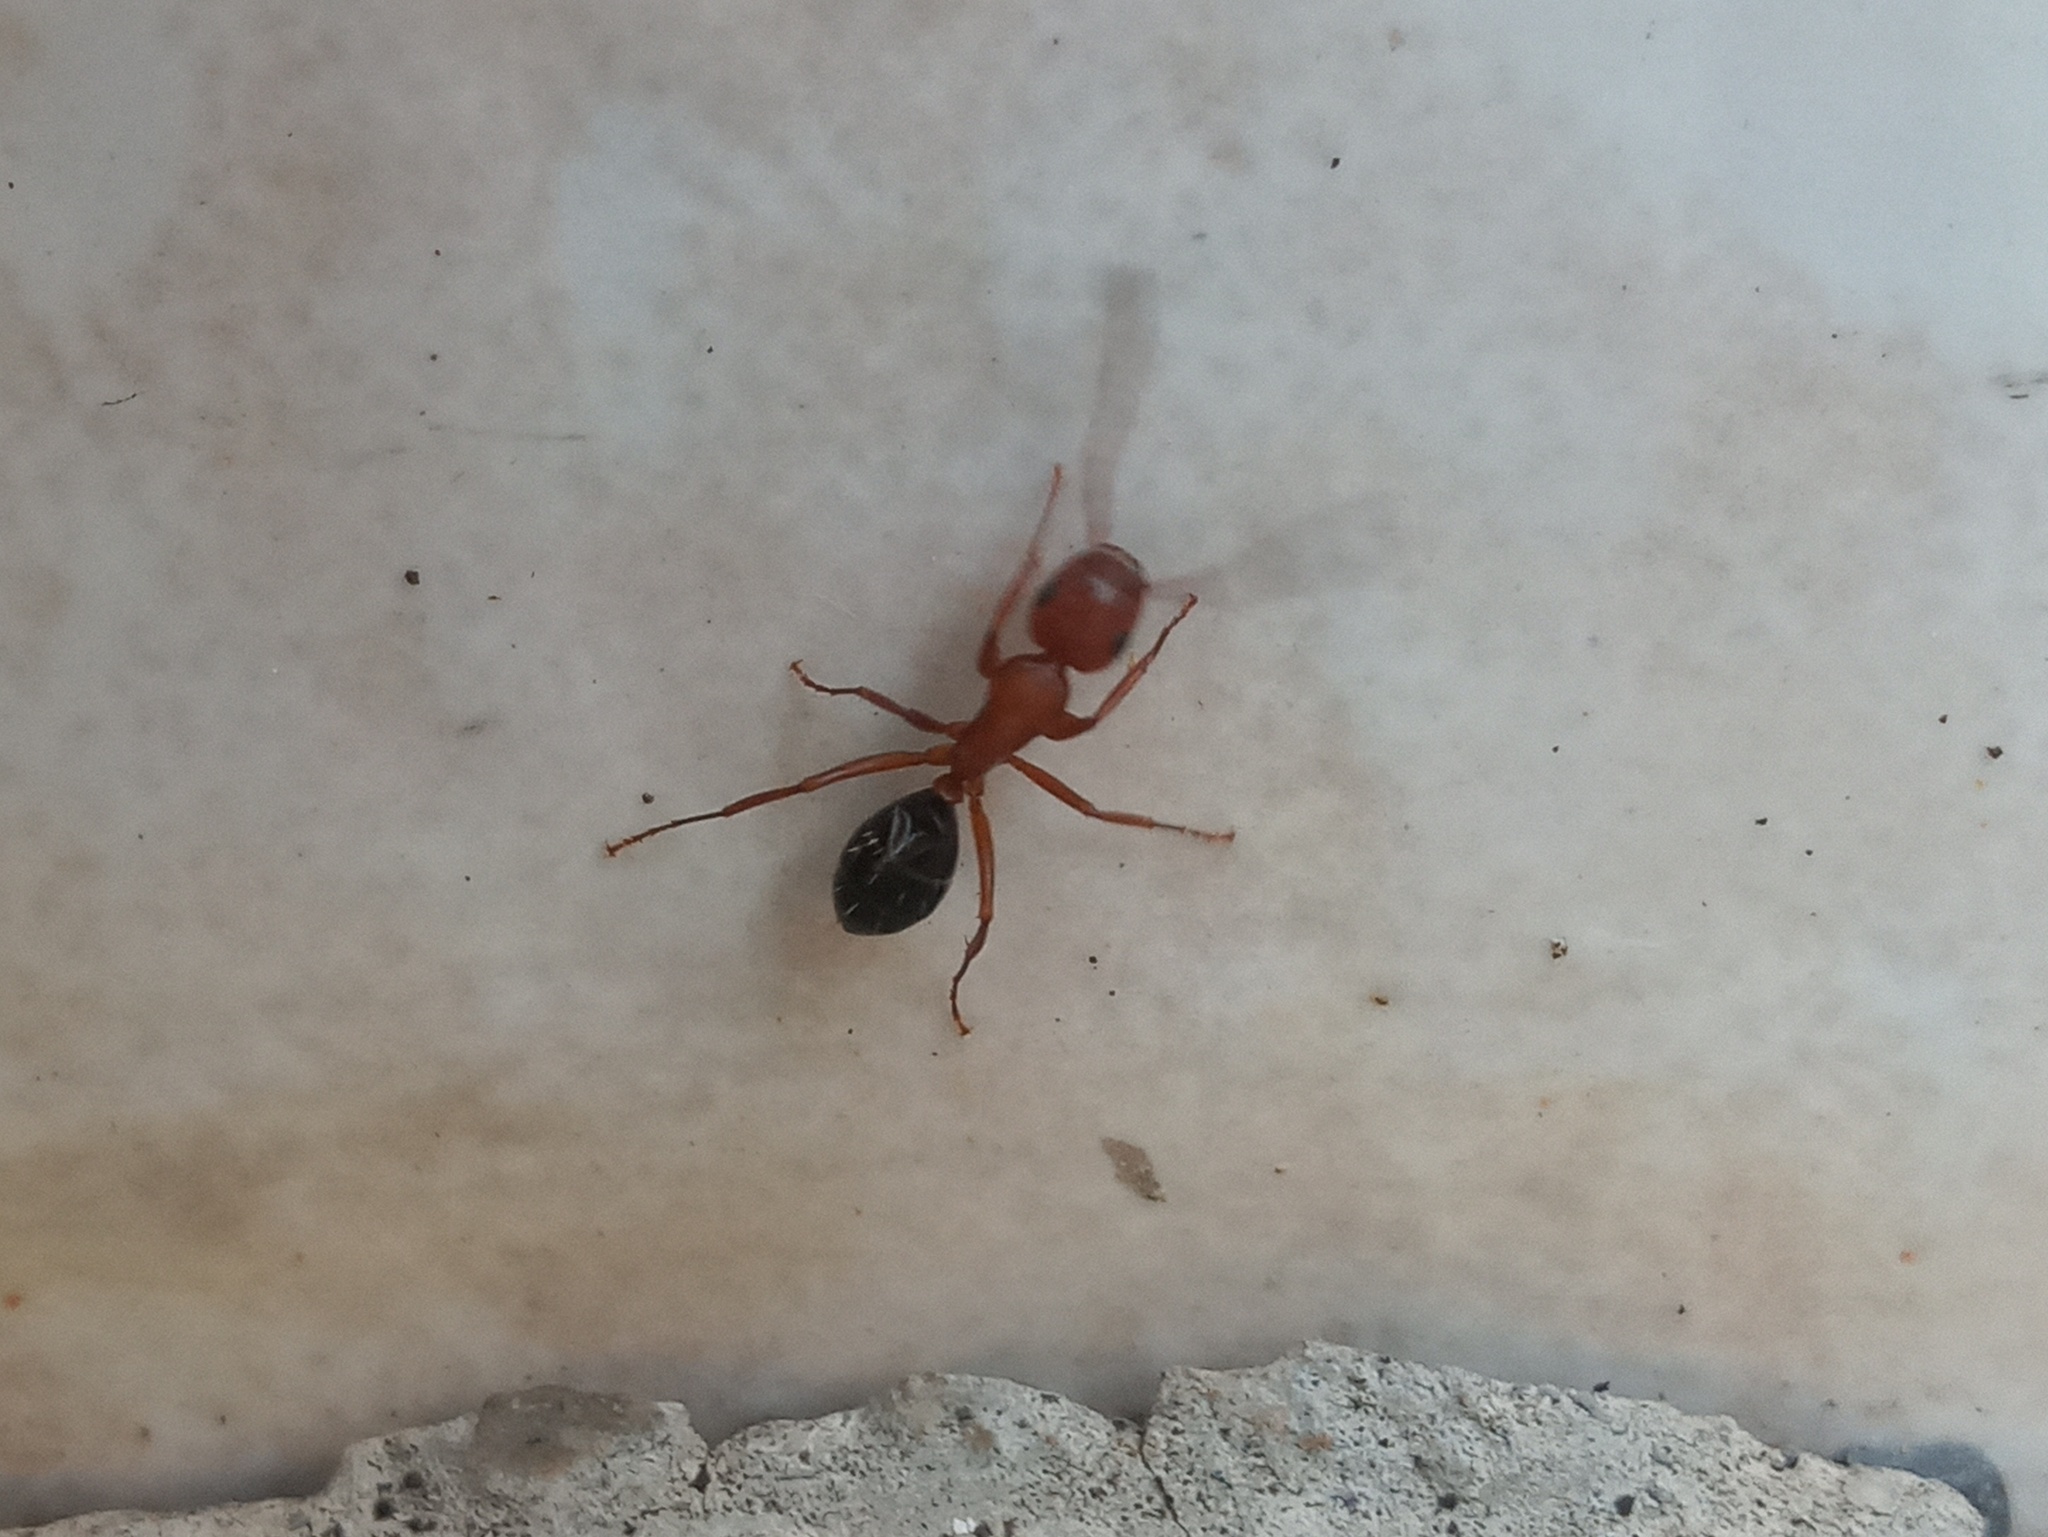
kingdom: Animalia
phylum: Arthropoda
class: Insecta
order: Hymenoptera
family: Formicidae
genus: Camponotus
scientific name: Camponotus decipiens
